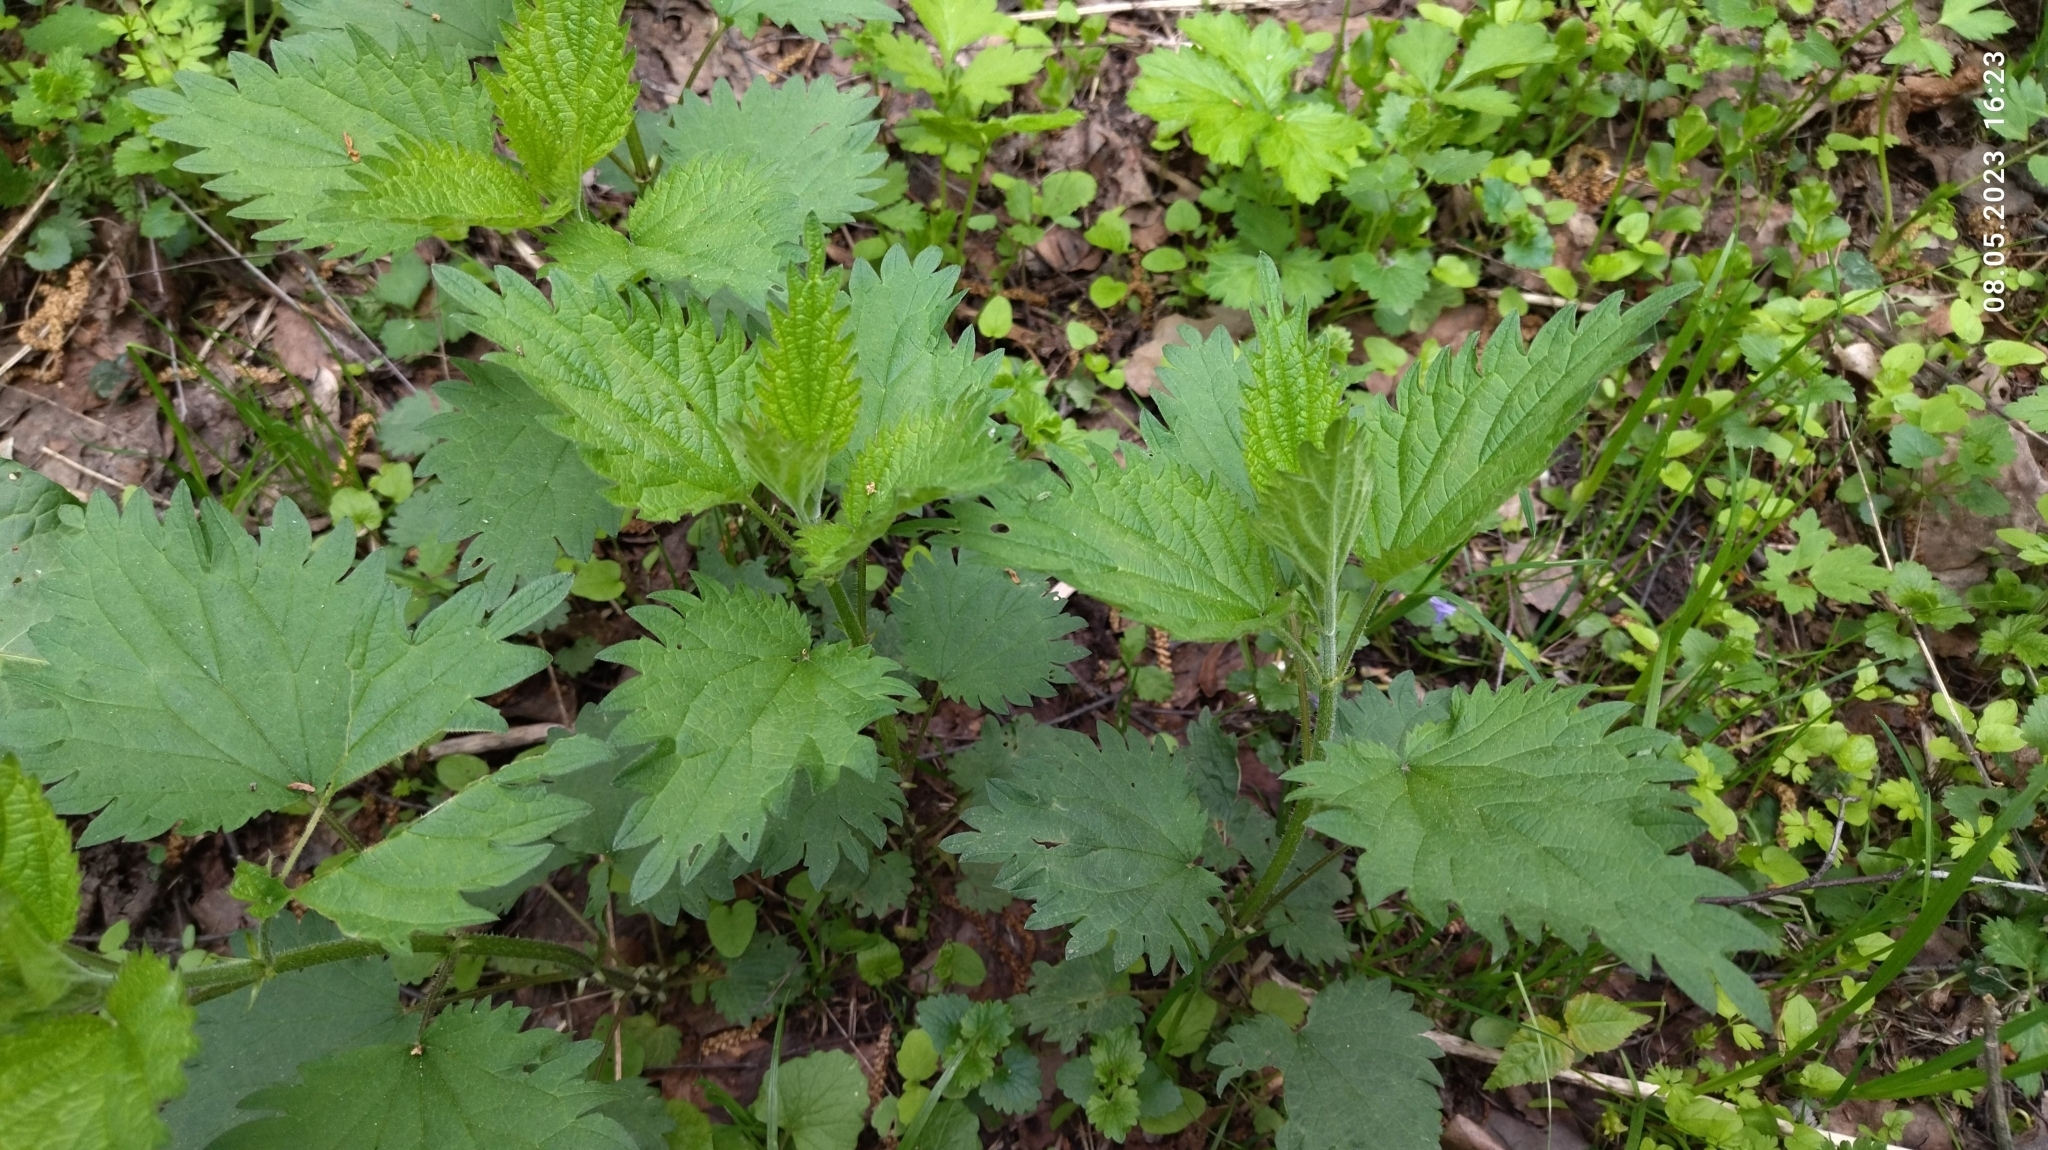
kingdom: Plantae
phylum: Tracheophyta
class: Magnoliopsida
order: Rosales
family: Urticaceae
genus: Urtica
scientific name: Urtica dioica
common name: Common nettle
